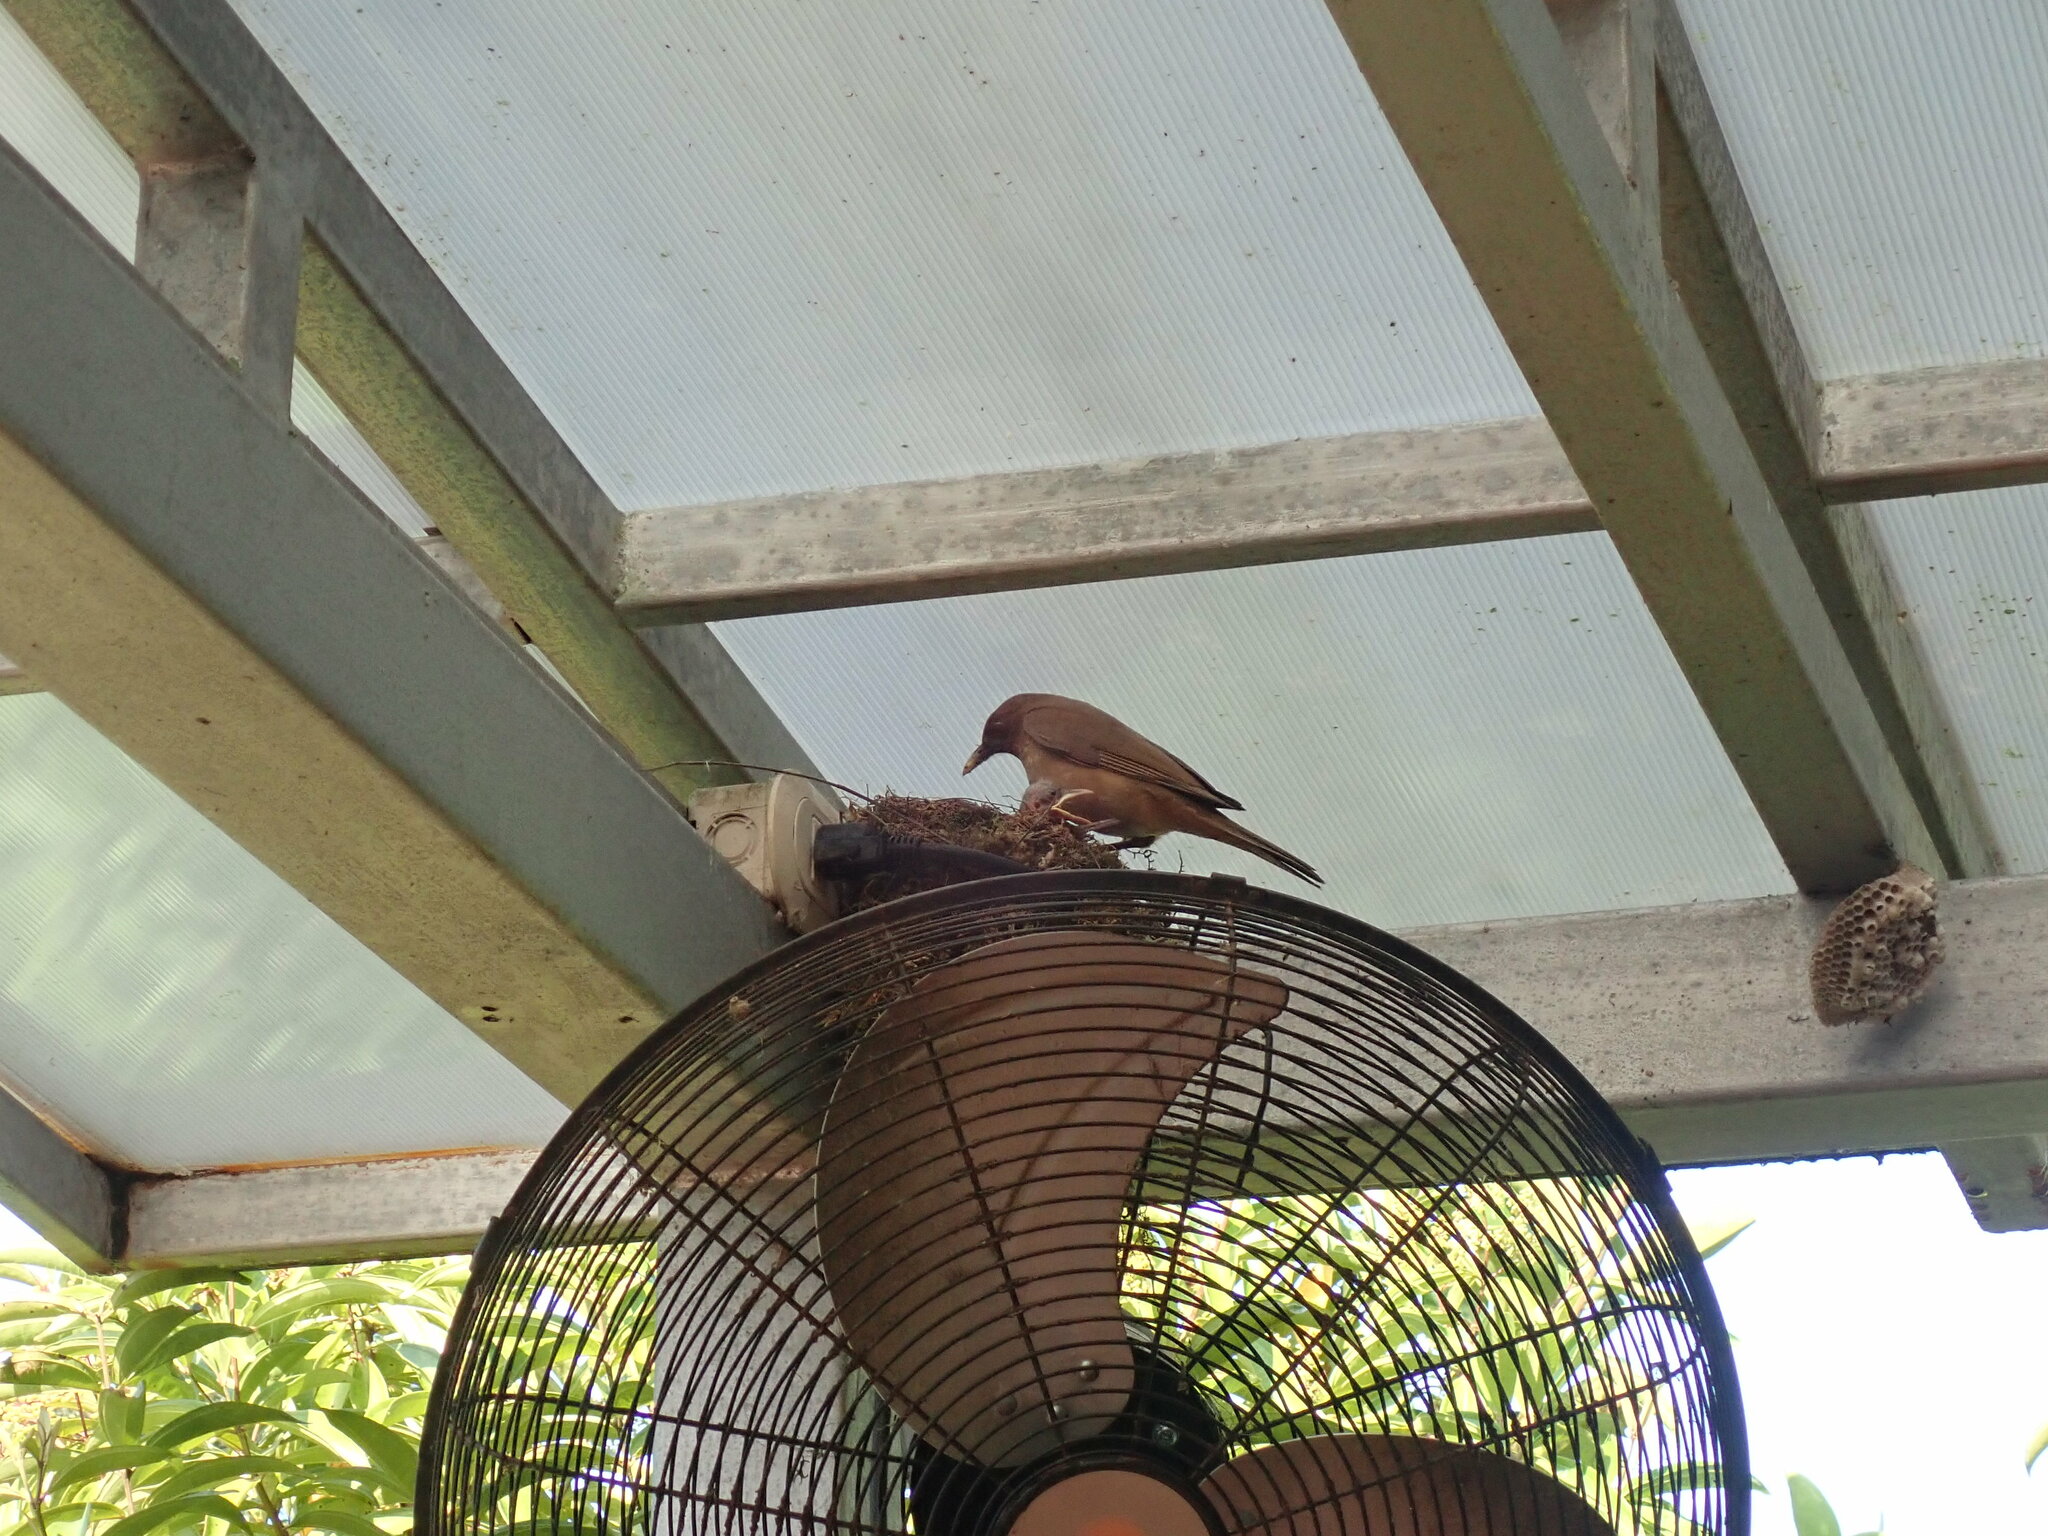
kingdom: Animalia
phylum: Chordata
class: Aves
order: Passeriformes
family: Turdidae
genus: Turdus
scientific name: Turdus grayi
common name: Clay-colored thrush
